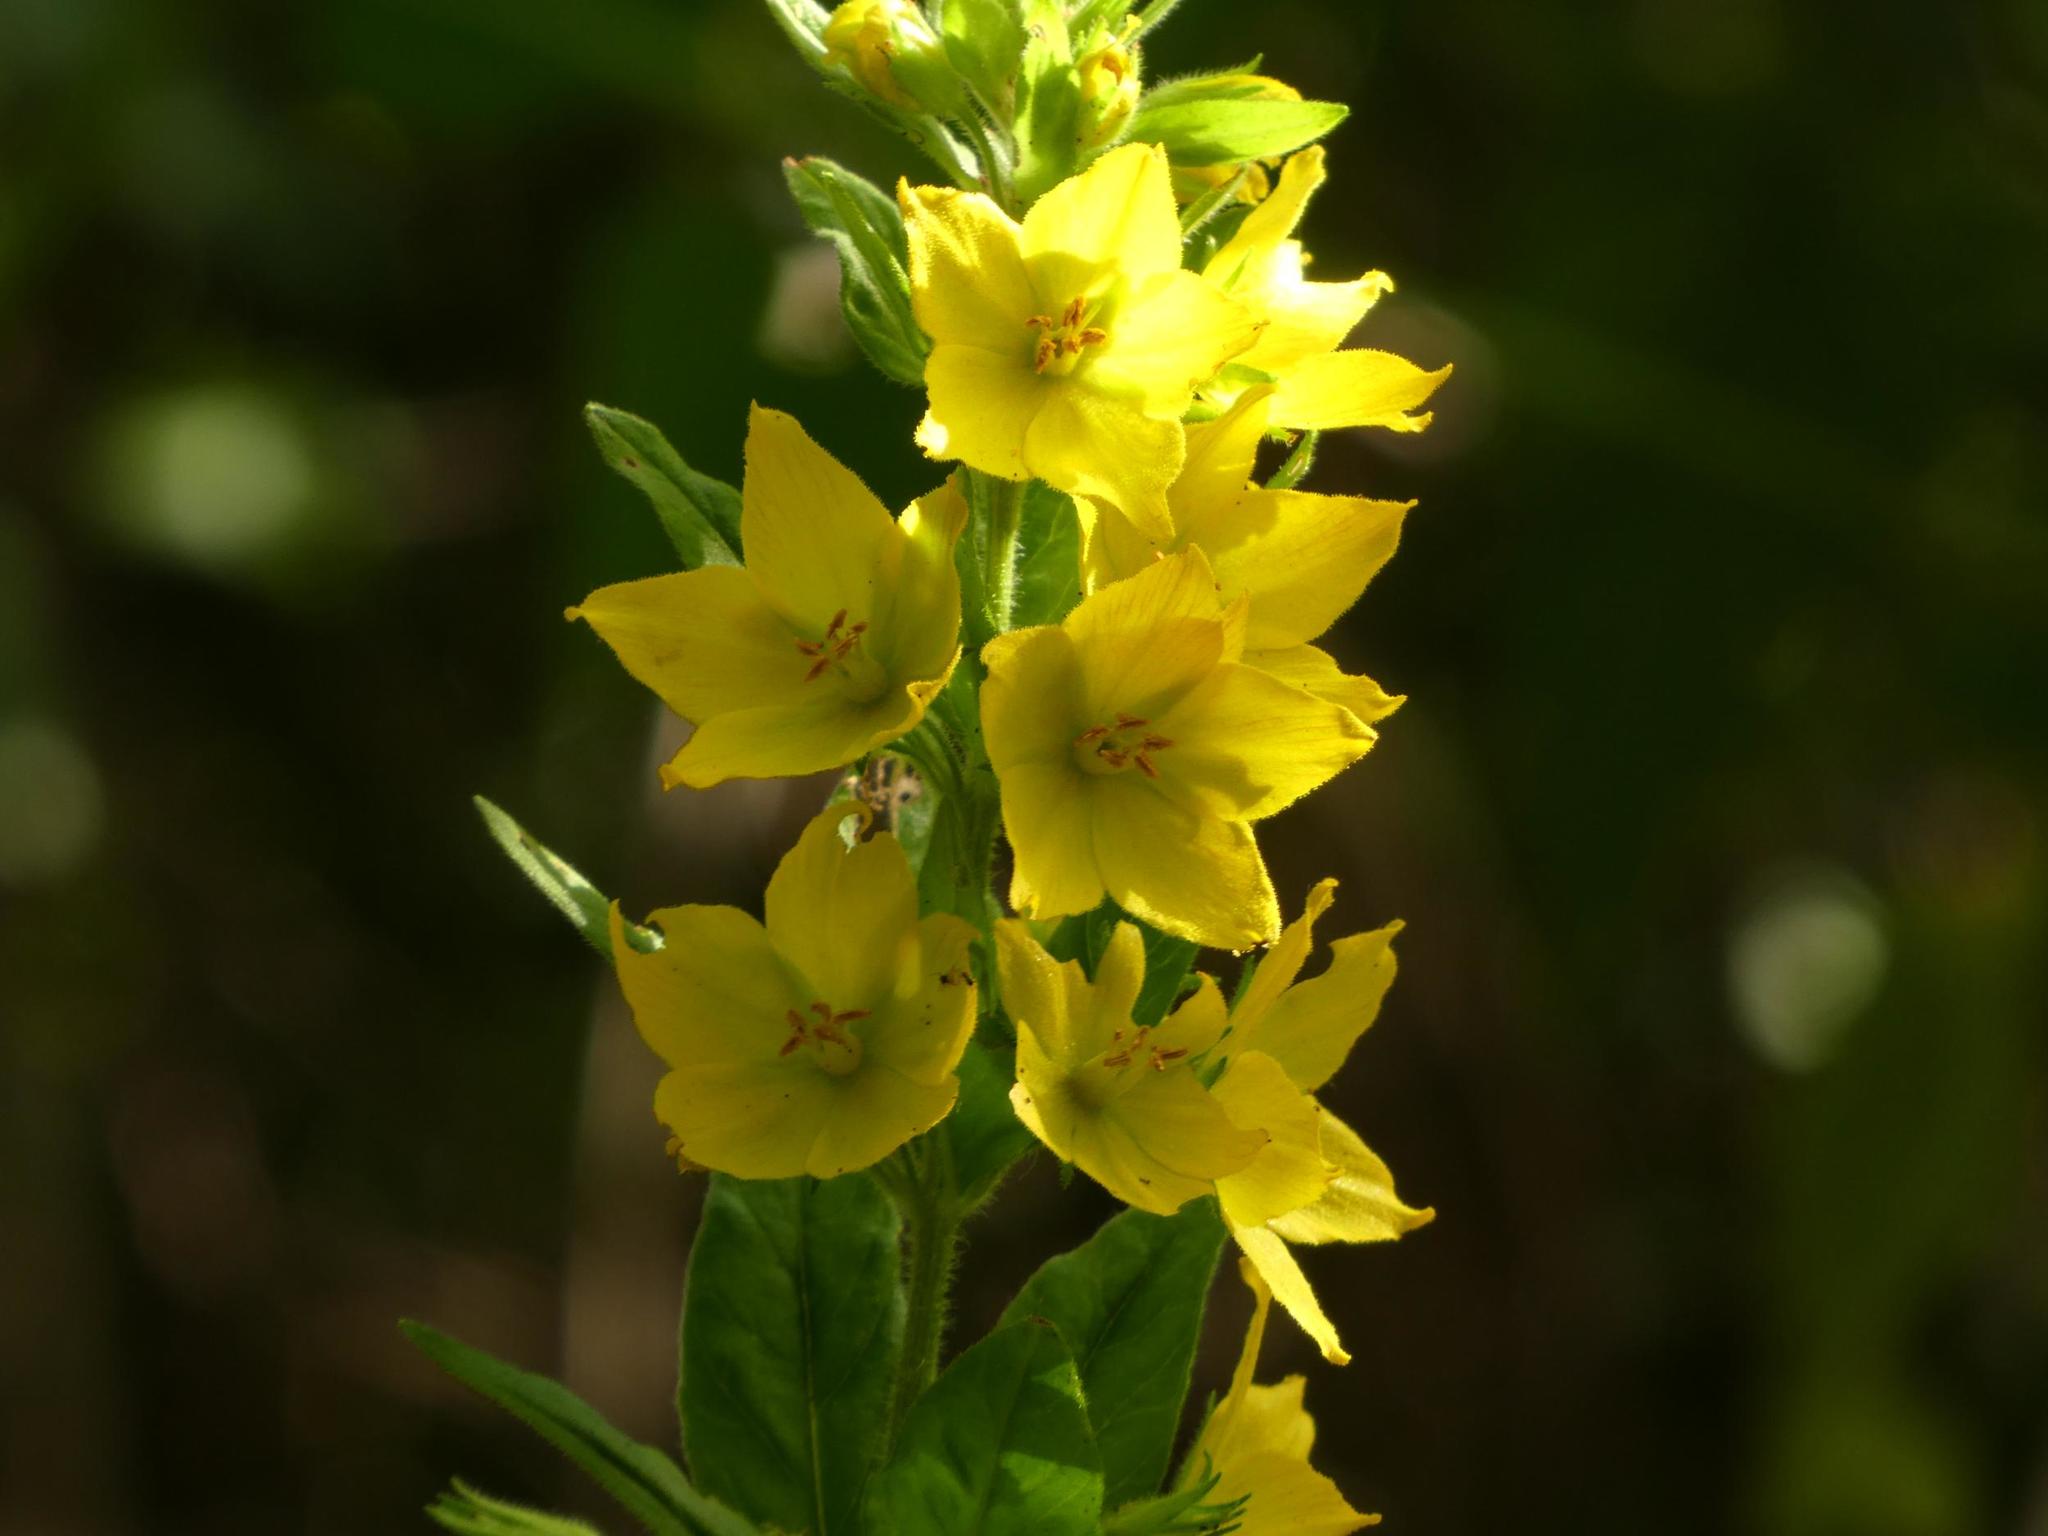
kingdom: Plantae
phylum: Tracheophyta
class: Magnoliopsida
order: Ericales
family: Primulaceae
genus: Lysimachia
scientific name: Lysimachia punctata
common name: Dotted loosestrife
